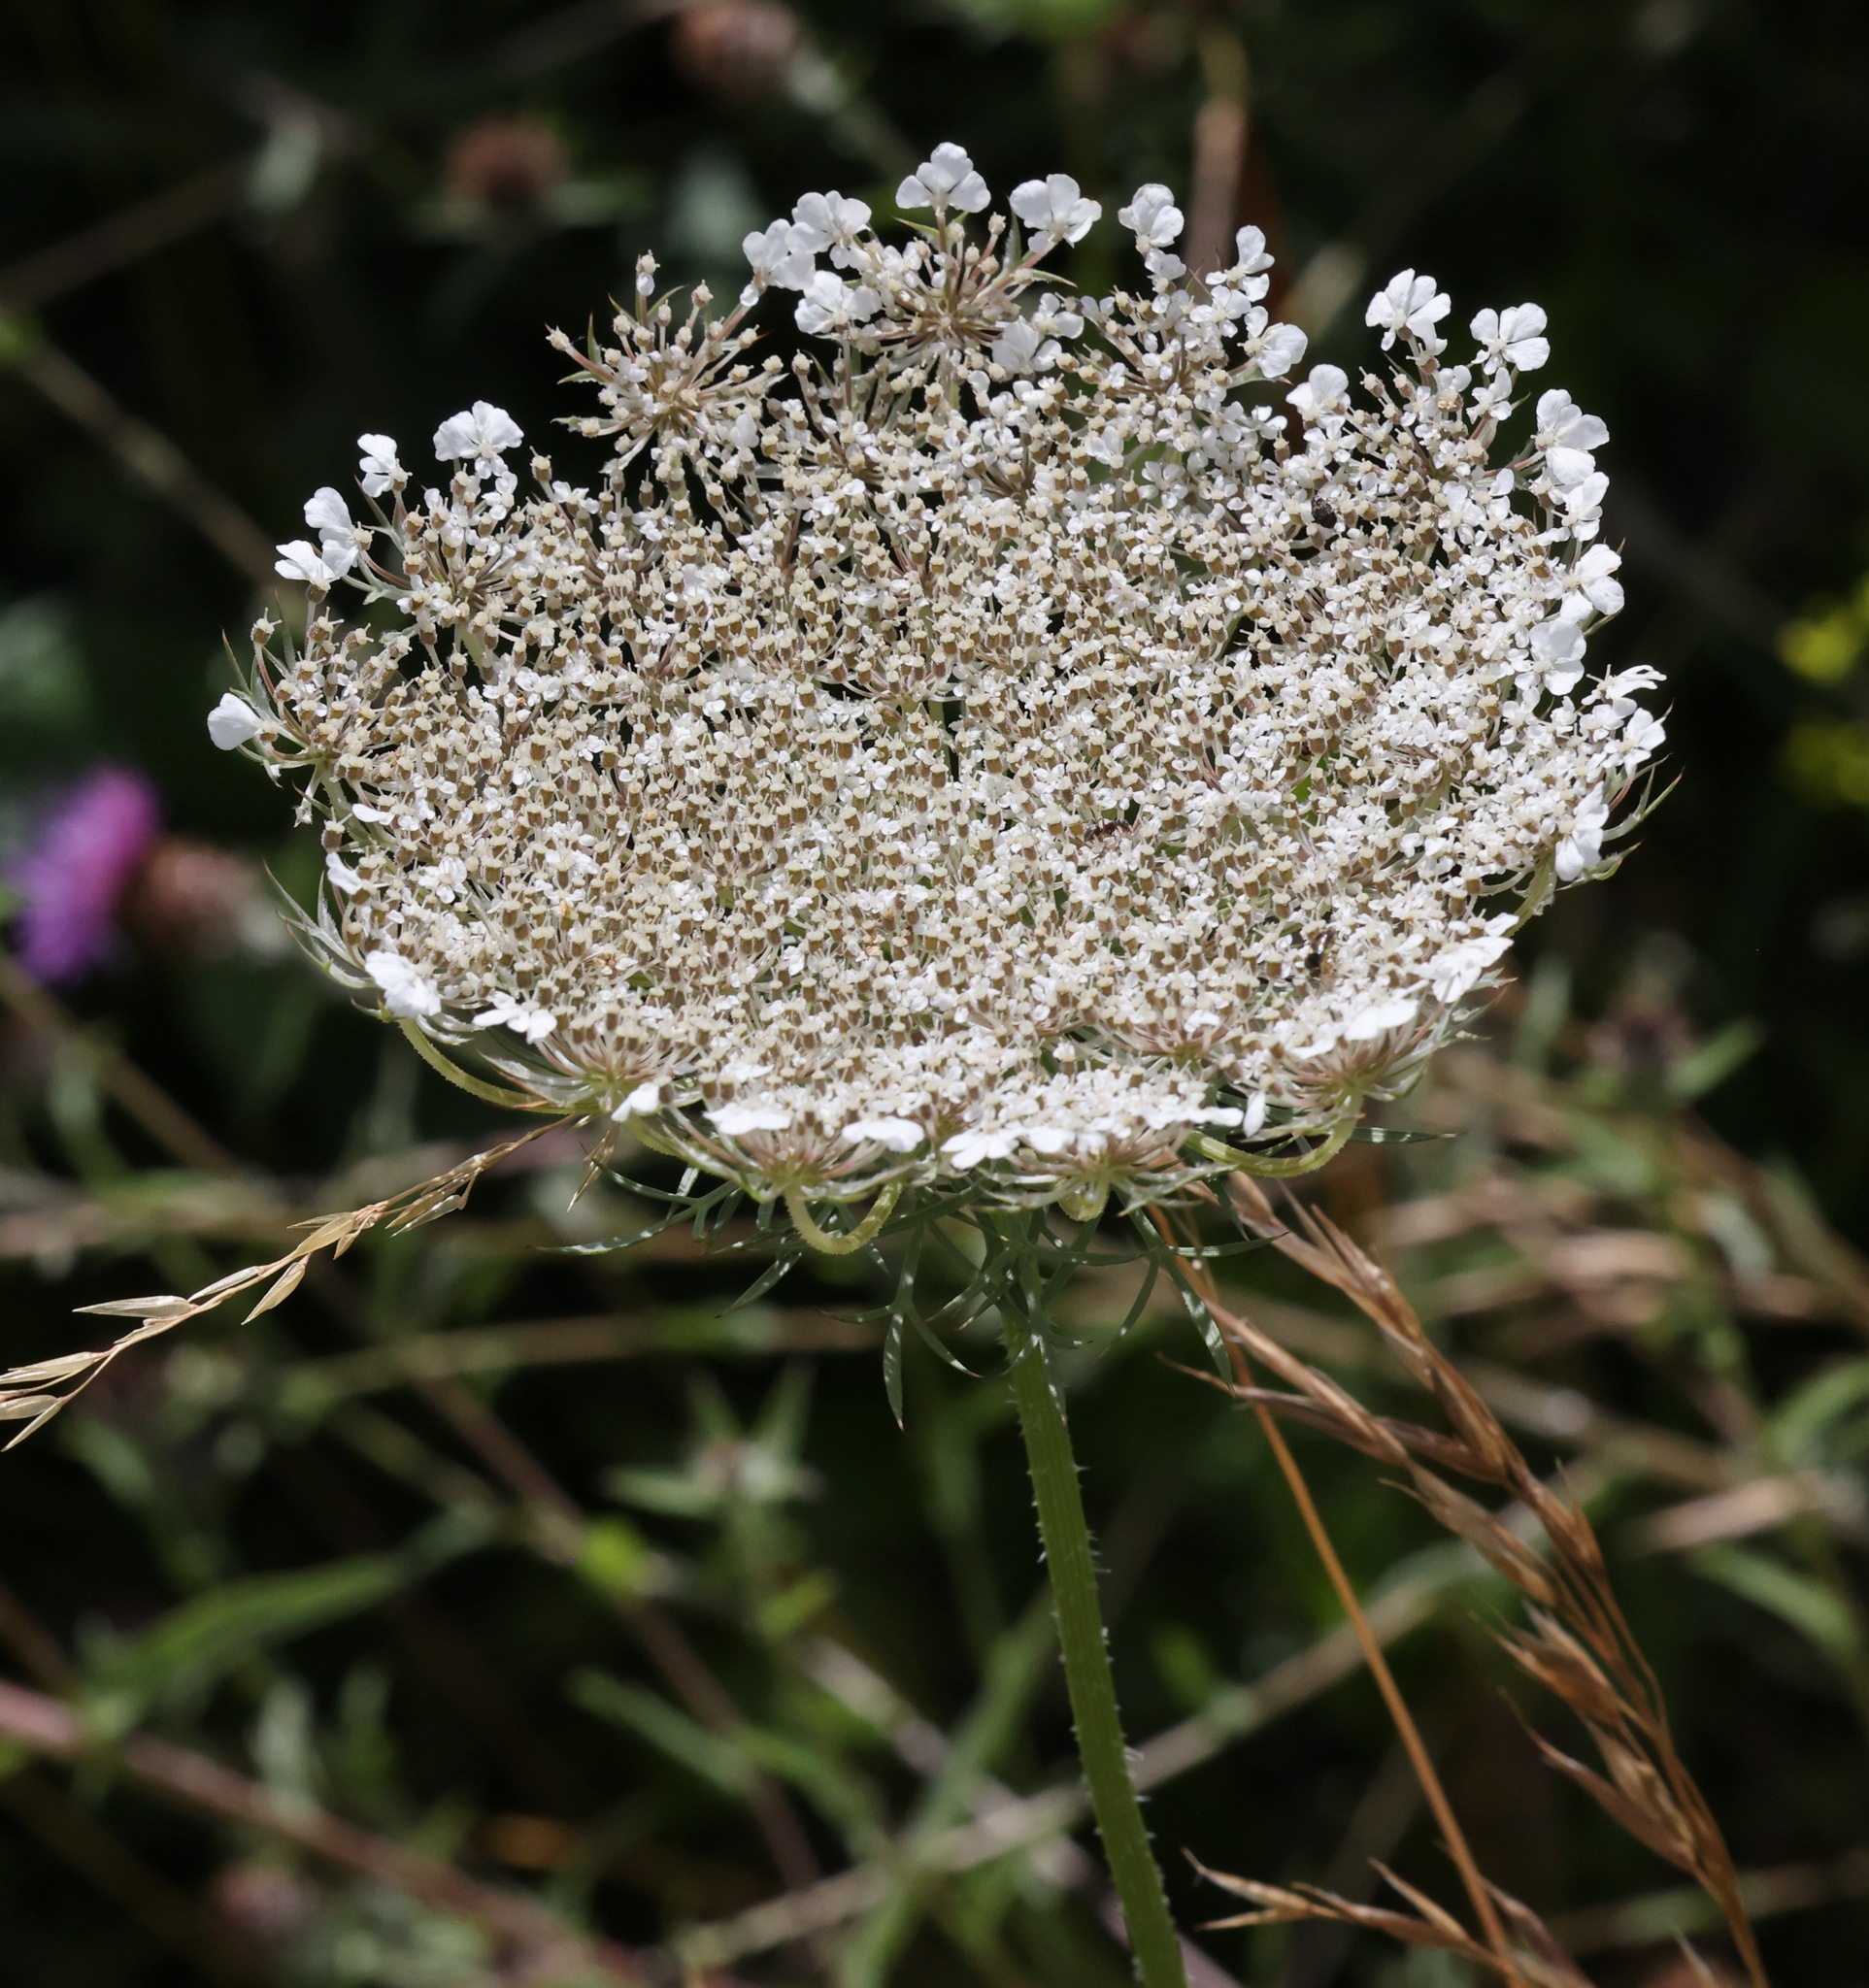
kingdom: Plantae
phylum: Tracheophyta
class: Magnoliopsida
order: Apiales
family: Apiaceae
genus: Daucus
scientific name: Daucus carota
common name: Wild carrot
